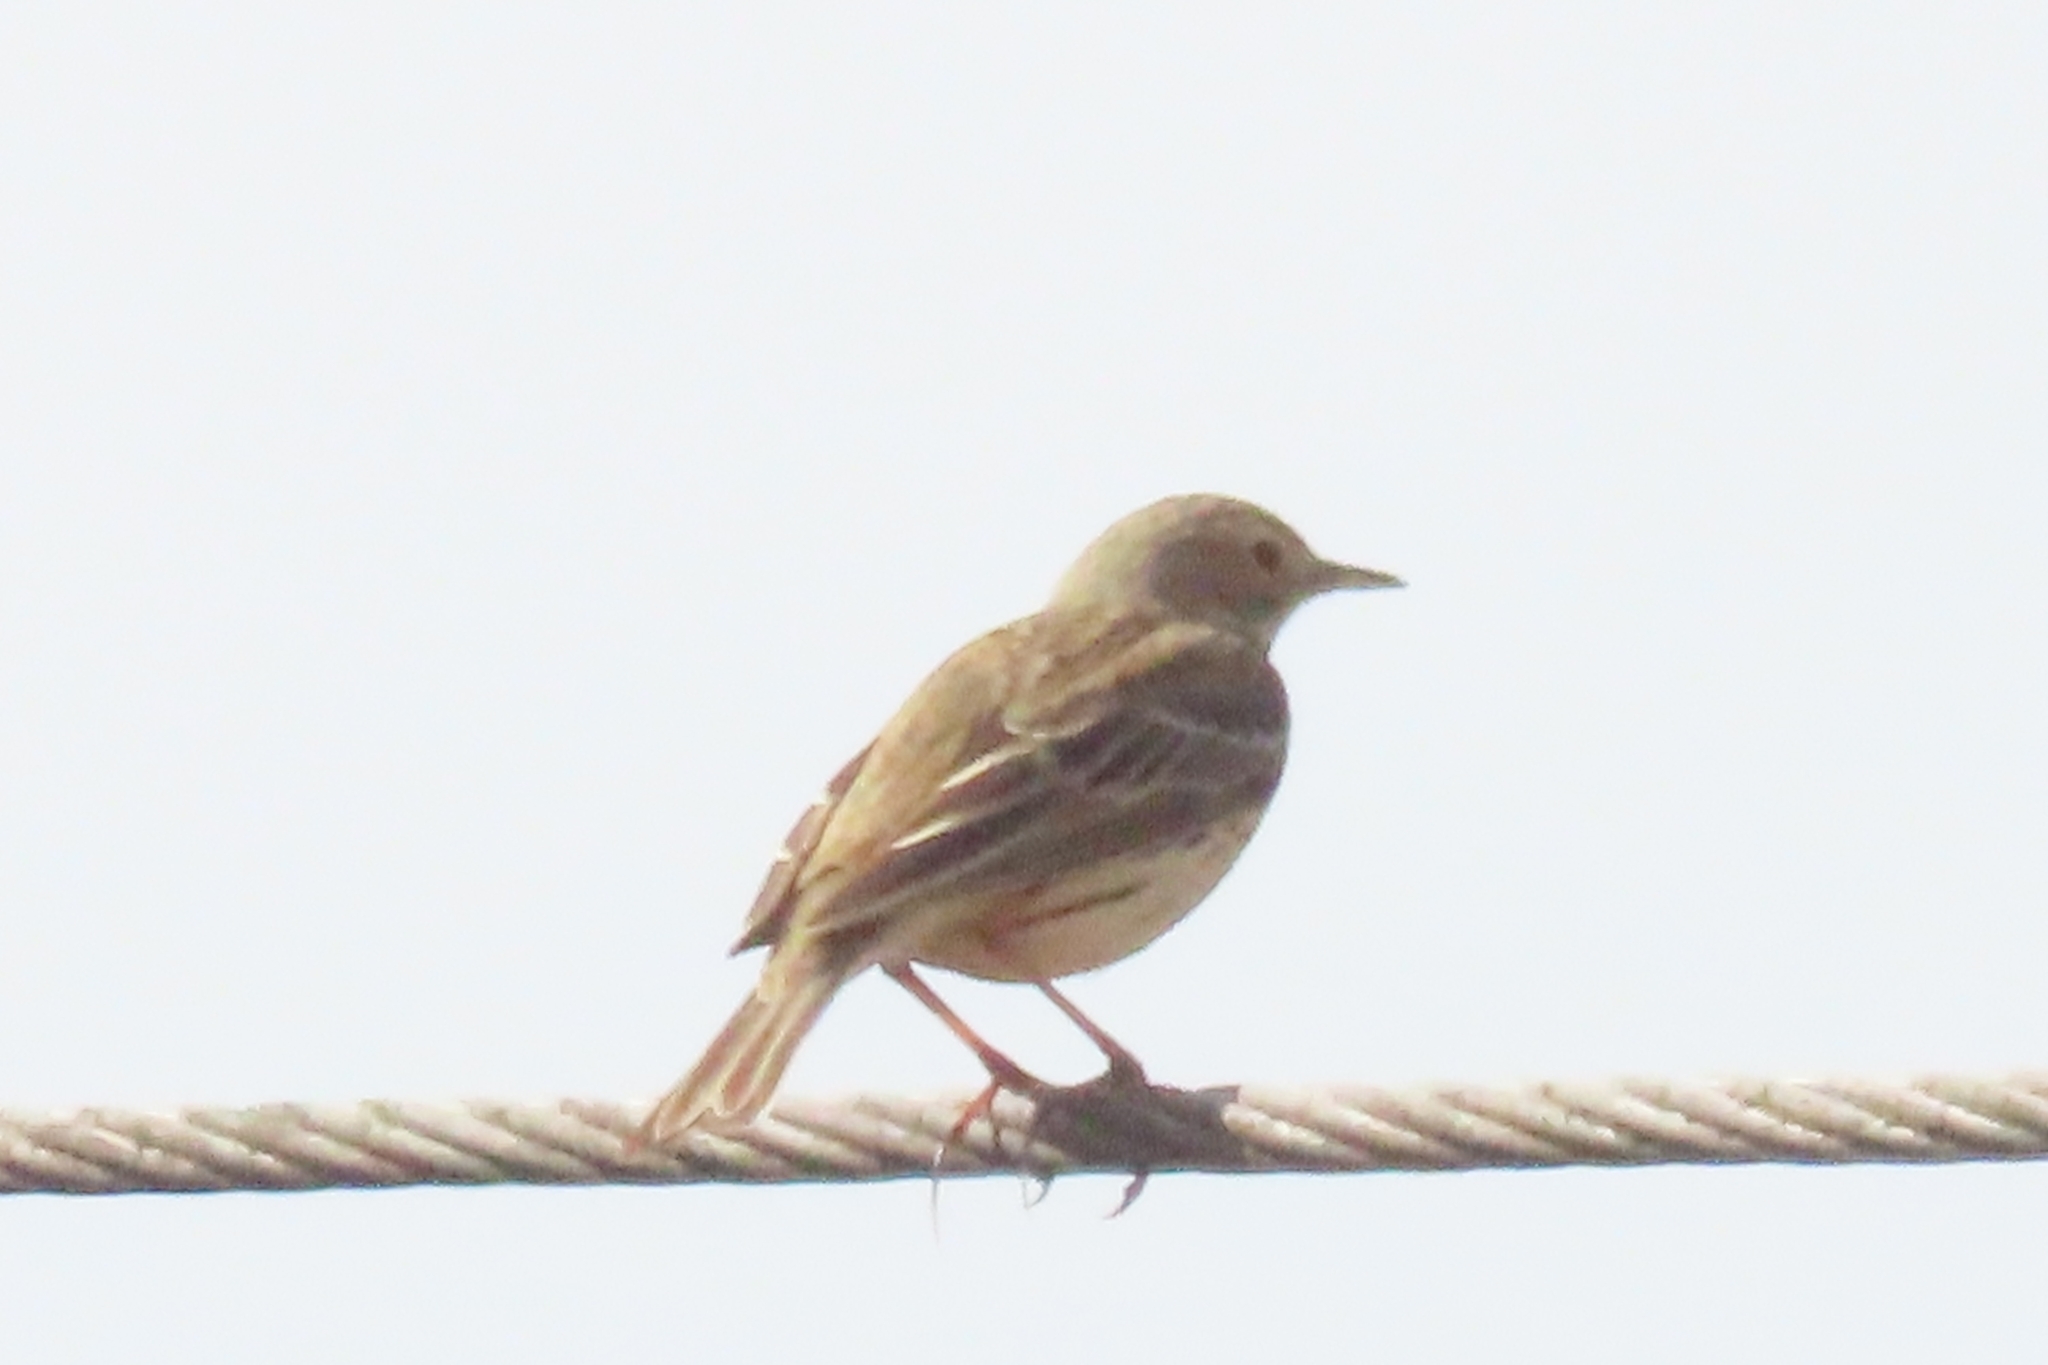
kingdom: Animalia
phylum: Chordata
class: Aves
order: Passeriformes
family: Motacillidae
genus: Anthus
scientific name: Anthus pratensis
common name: Meadow pipit
